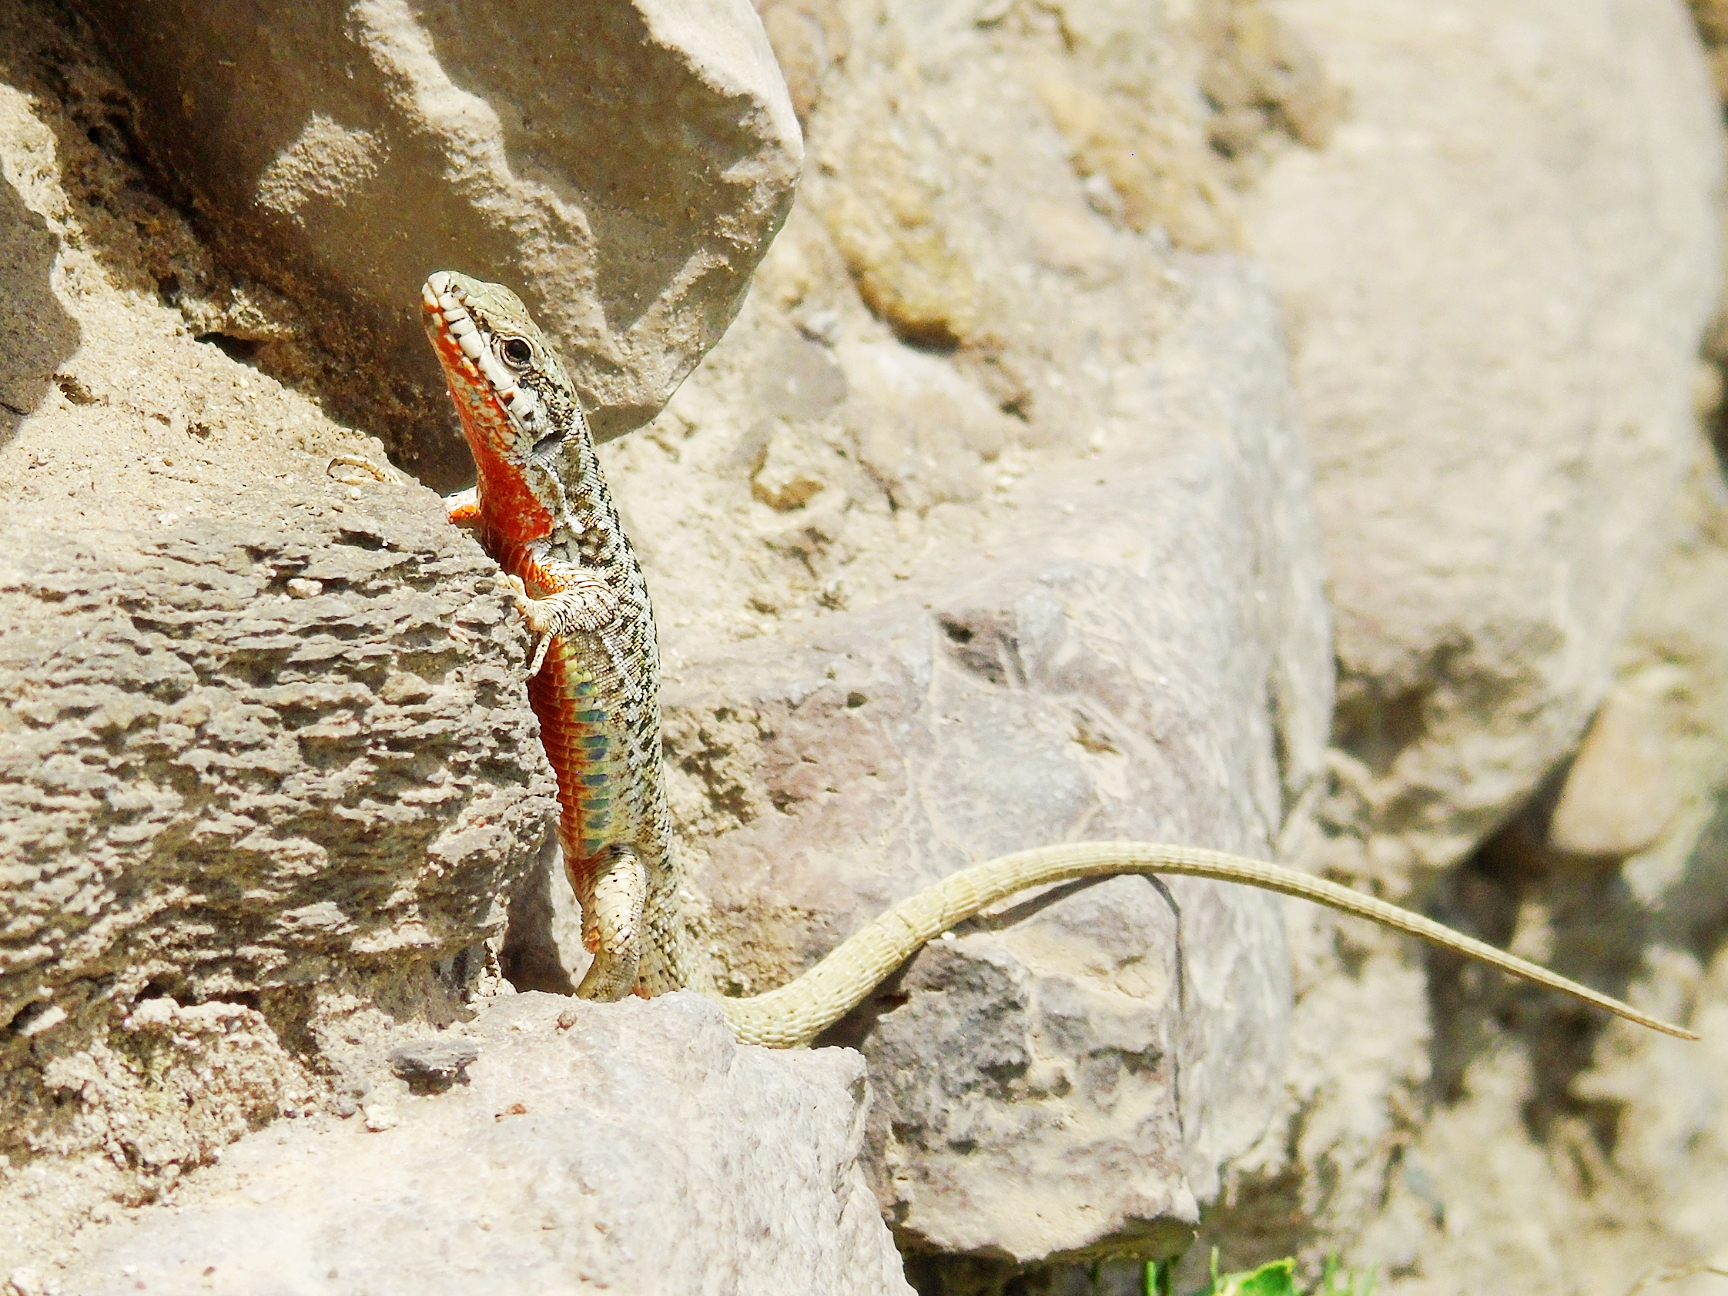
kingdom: Animalia
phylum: Chordata
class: Squamata
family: Lacertidae
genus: Podarcis
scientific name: Podarcis erhardii
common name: Erhard's wall lizard
